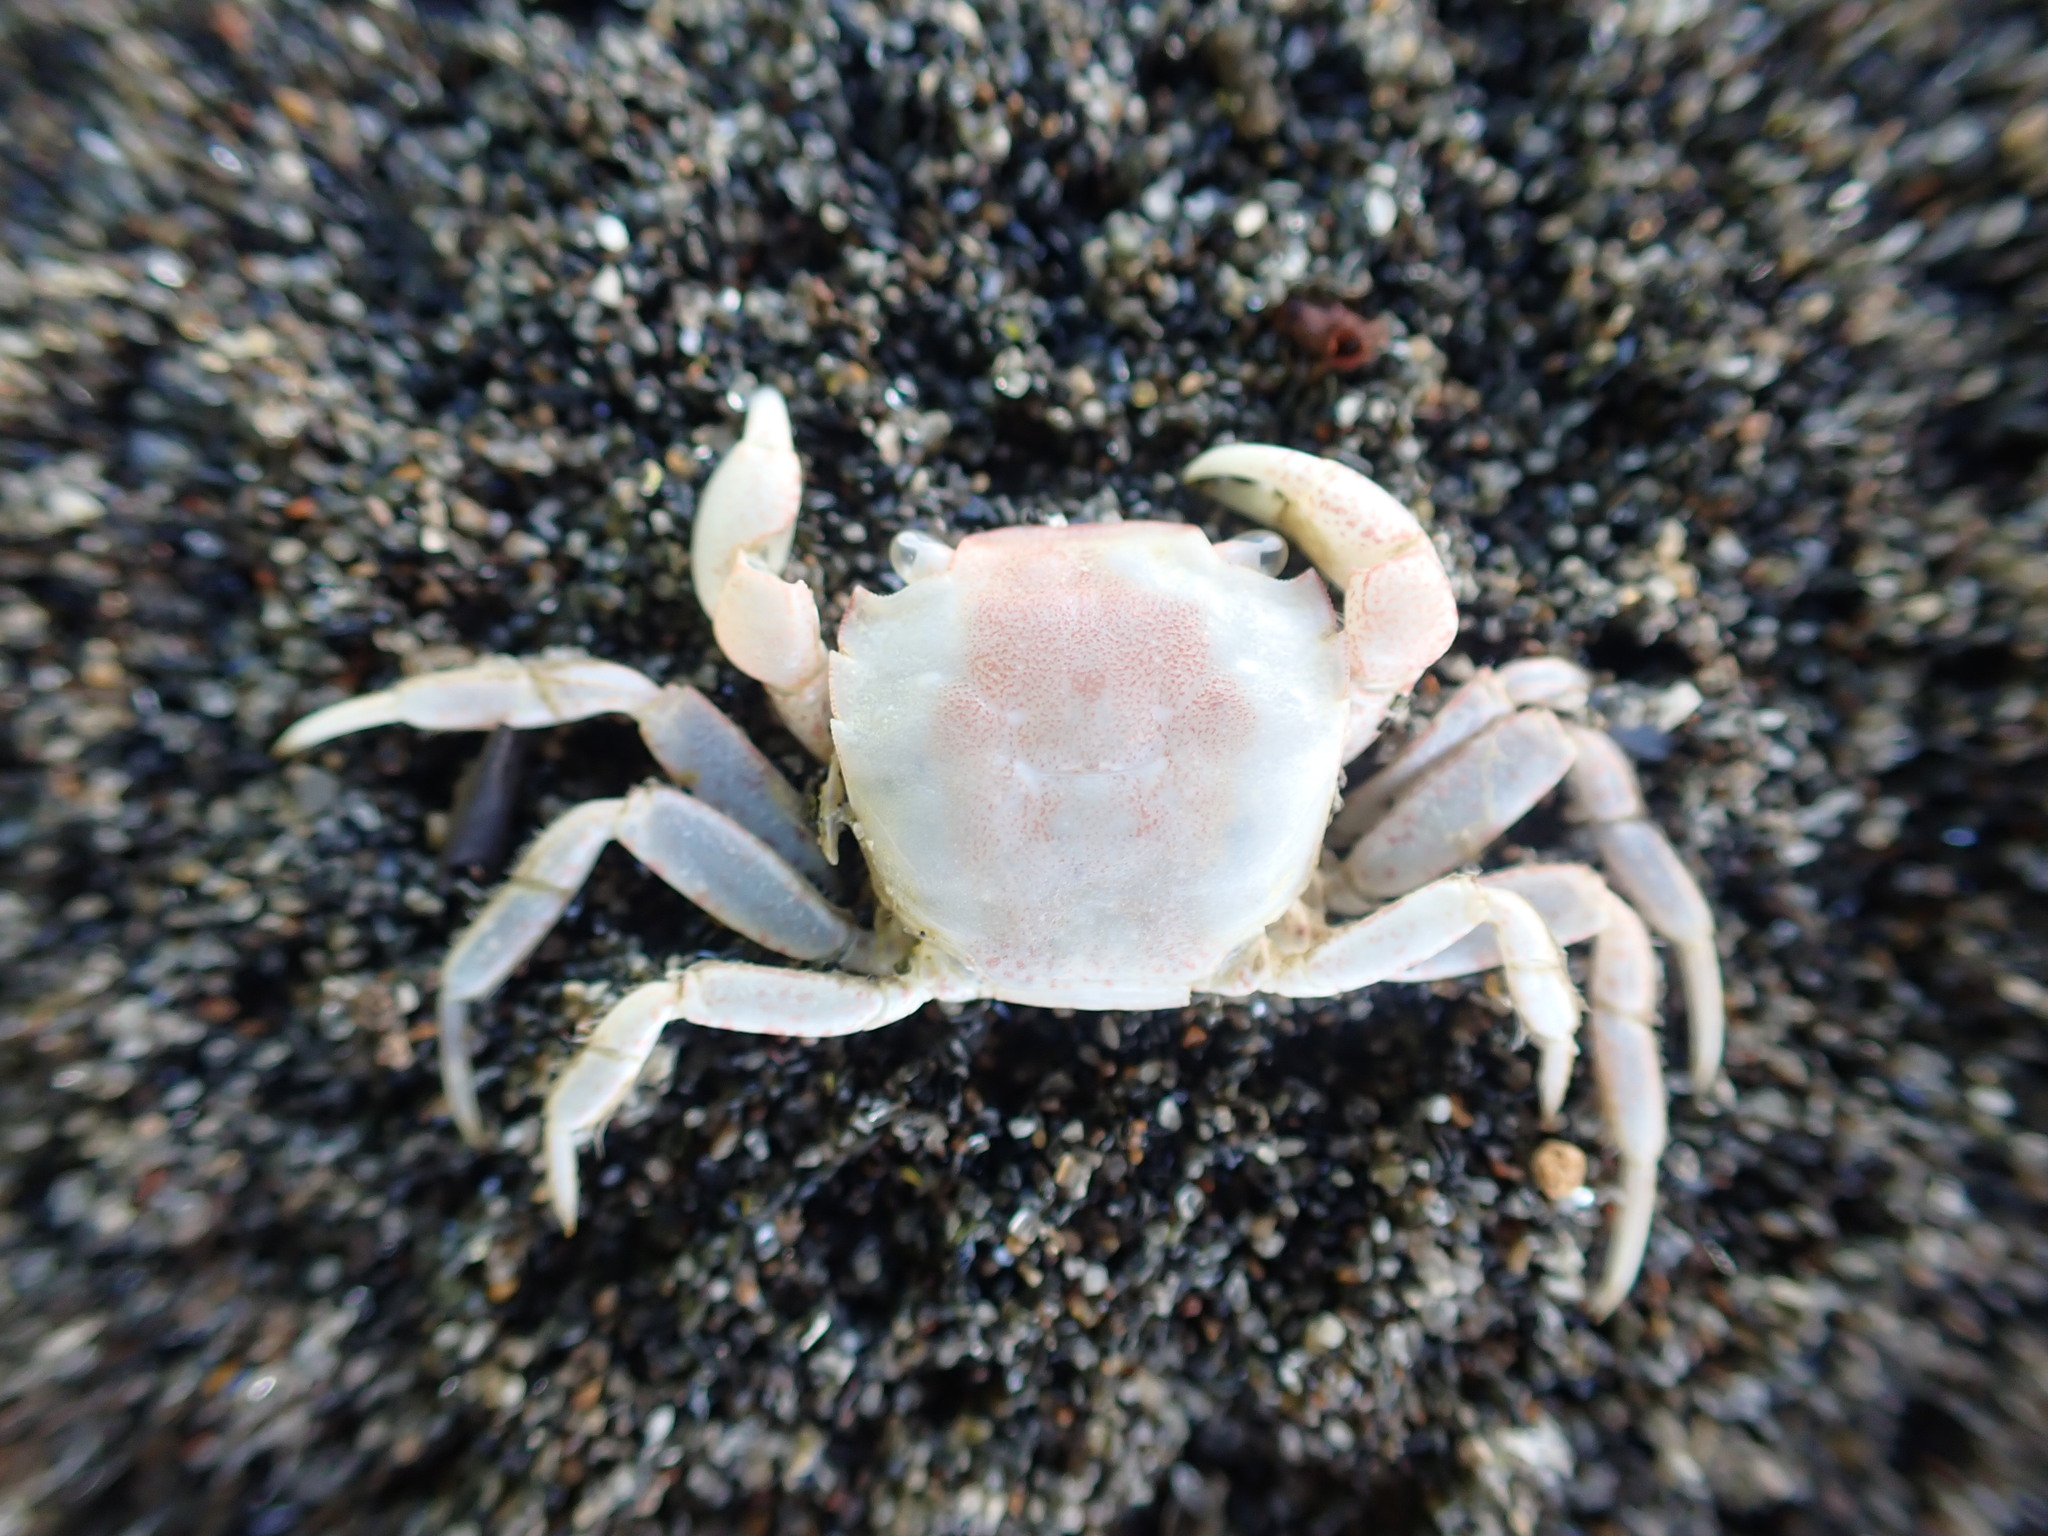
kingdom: Animalia
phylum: Arthropoda
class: Malacostraca
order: Decapoda
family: Varunidae
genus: Hemigrapsus
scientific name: Hemigrapsus crenulatus
